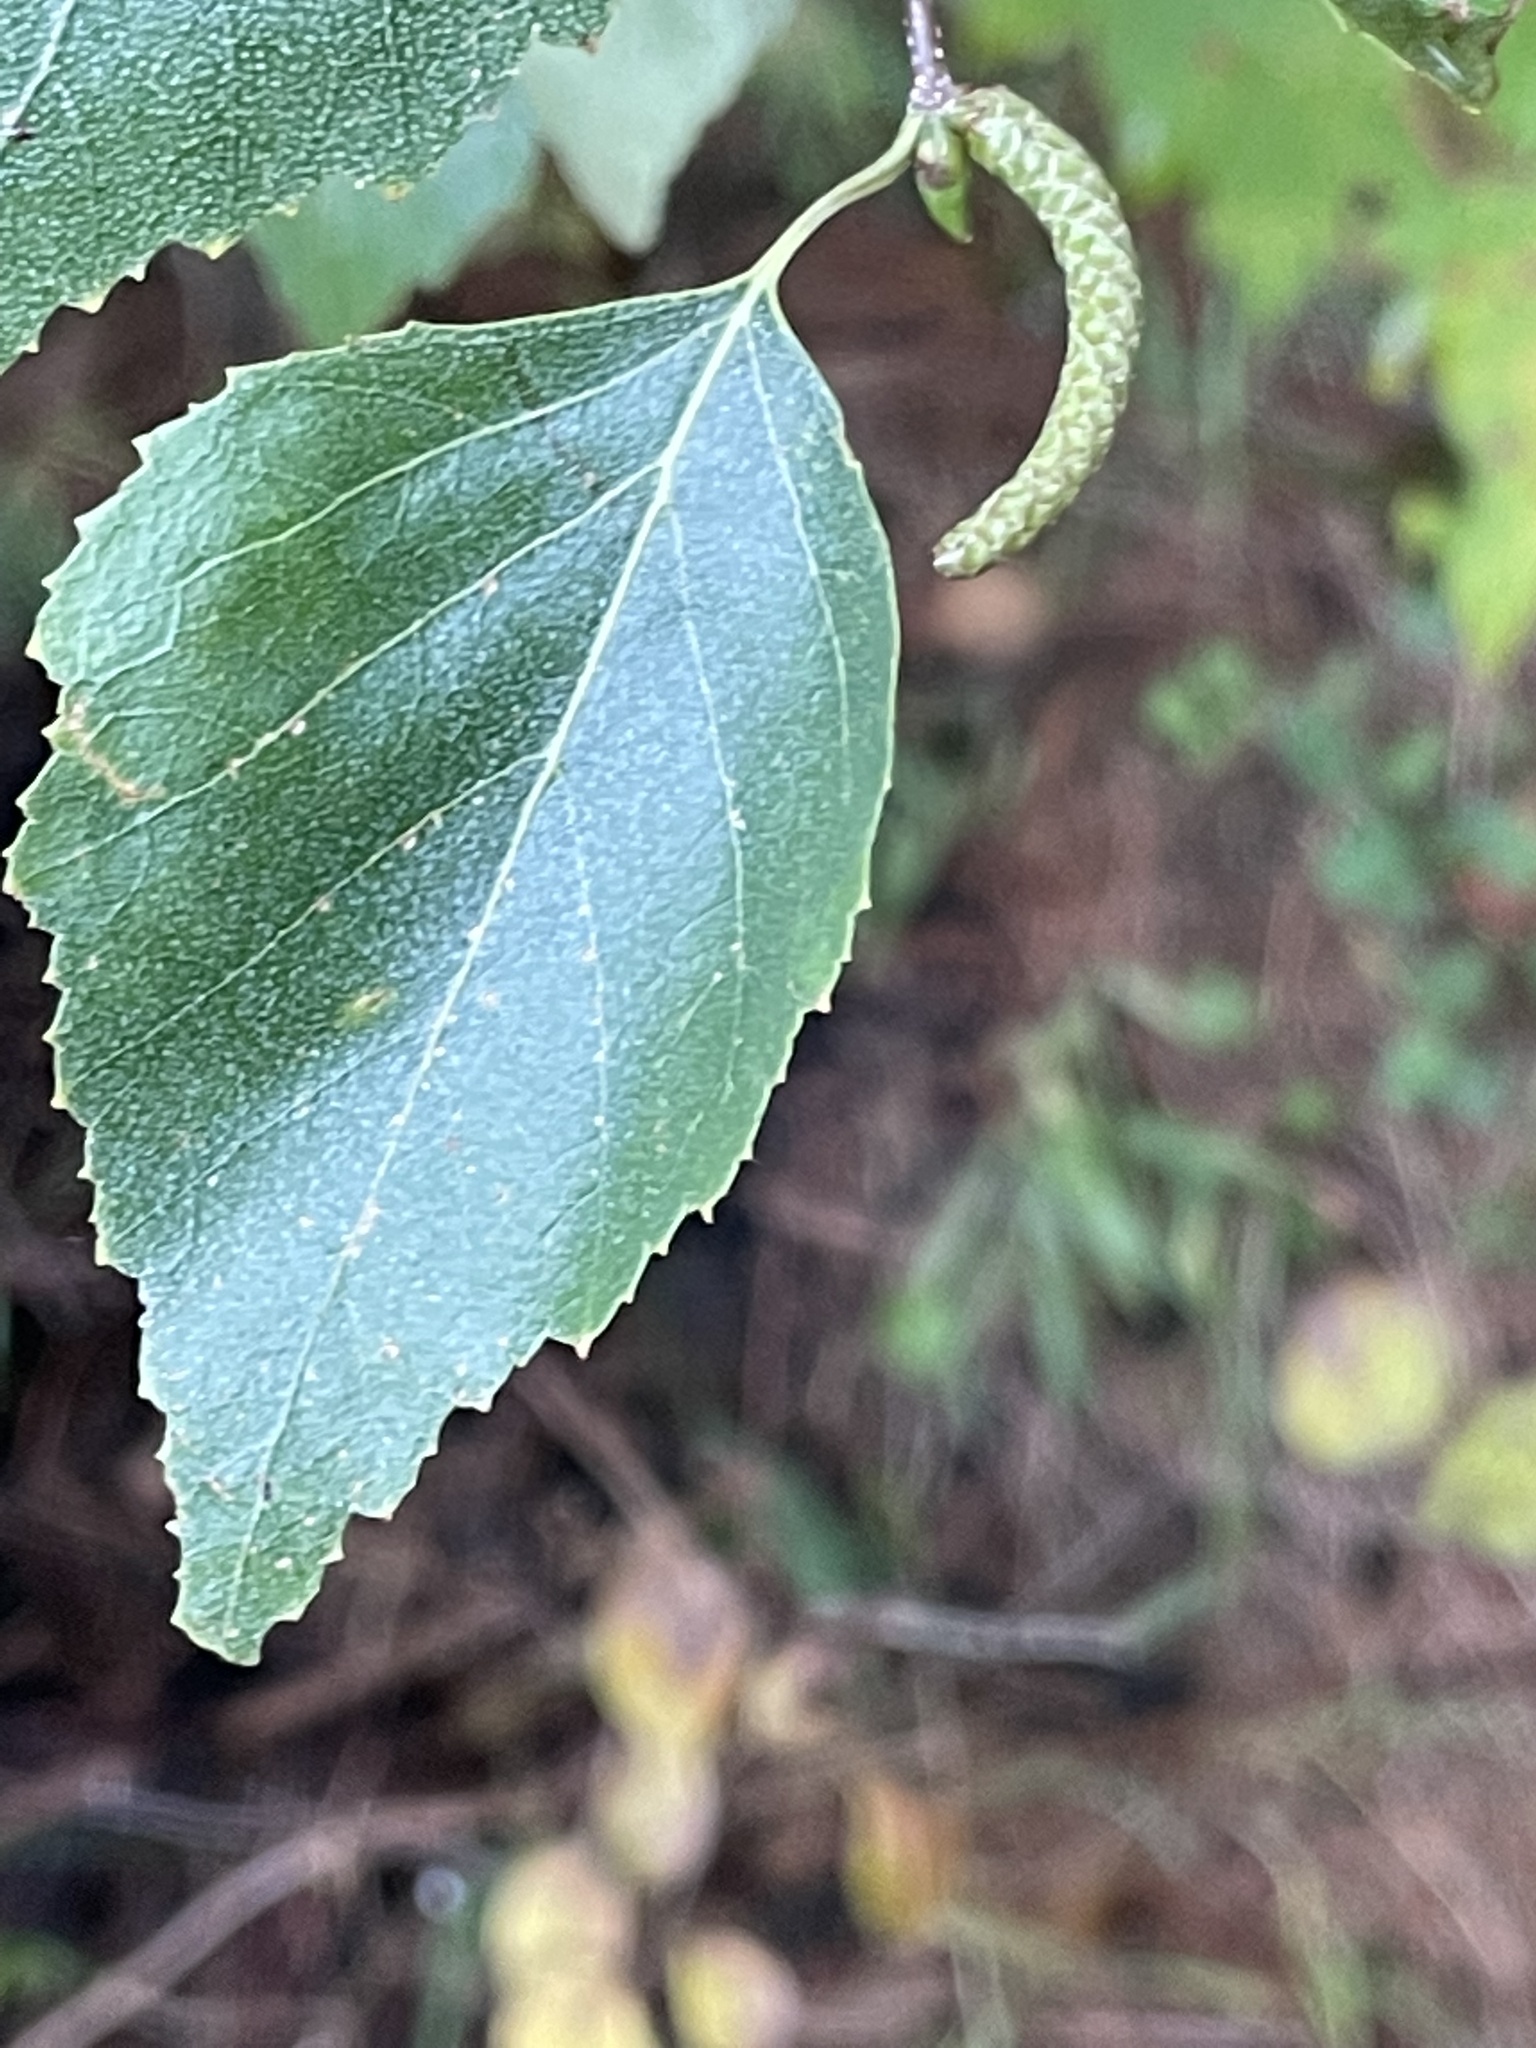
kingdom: Plantae
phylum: Tracheophyta
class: Magnoliopsida
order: Fagales
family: Betulaceae
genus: Betula
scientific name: Betula populifolia
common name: Fire birch
